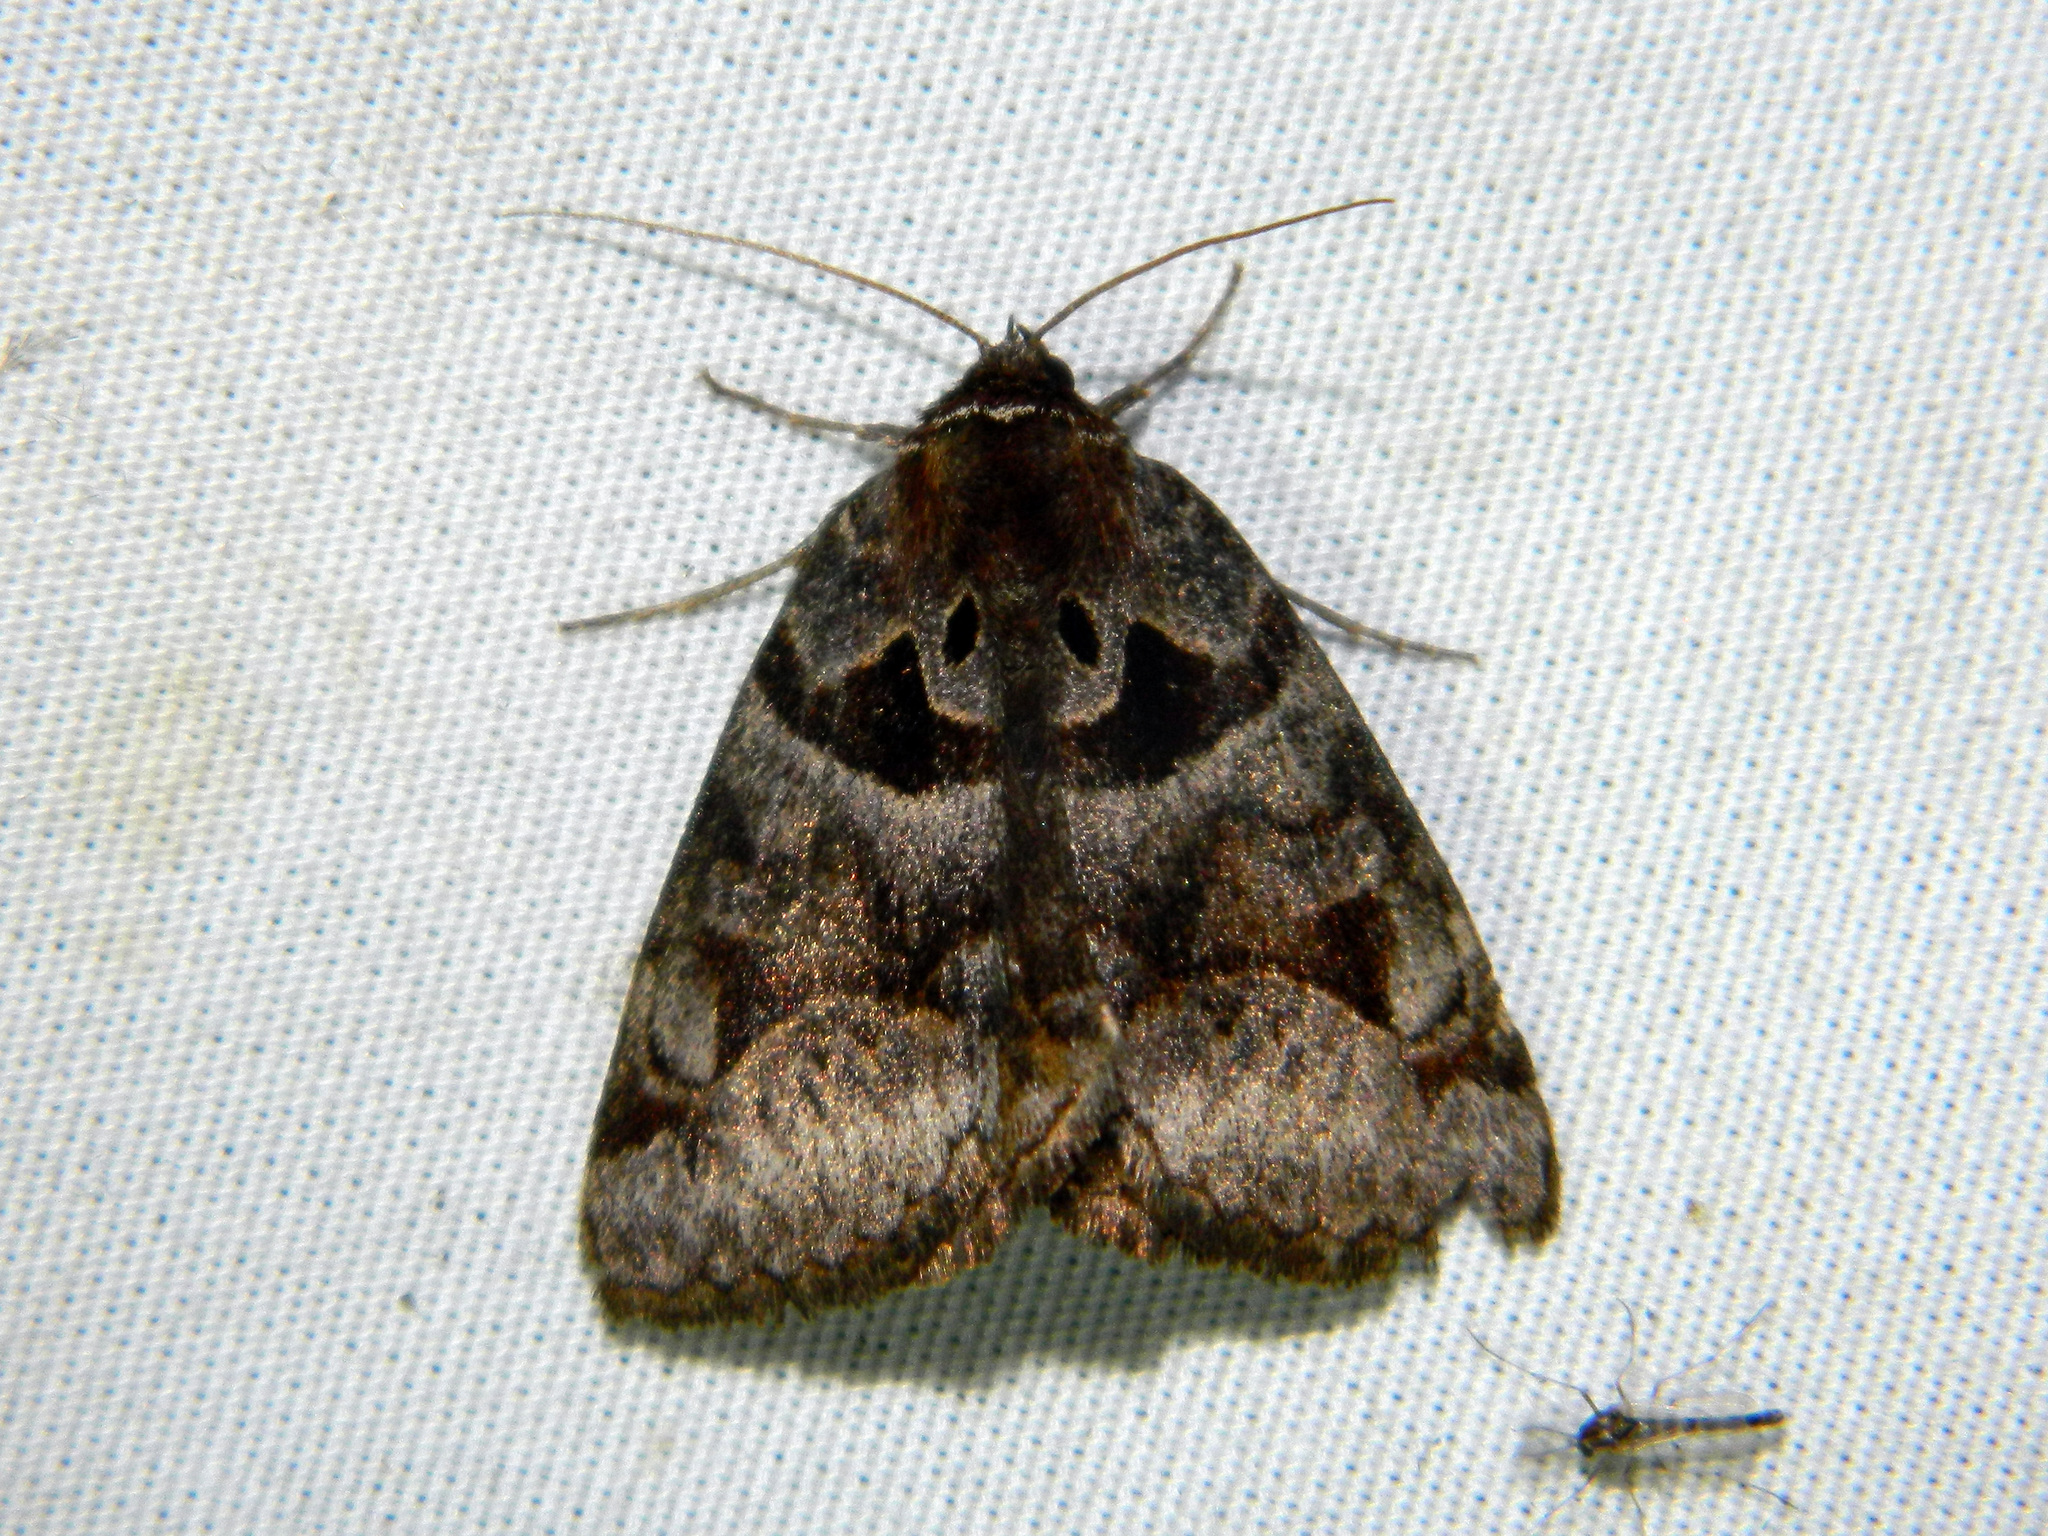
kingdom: Animalia
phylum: Arthropoda
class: Insecta
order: Lepidoptera
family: Erebidae
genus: Euclidia
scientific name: Euclidia cuspidea
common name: Toothed somberwing
